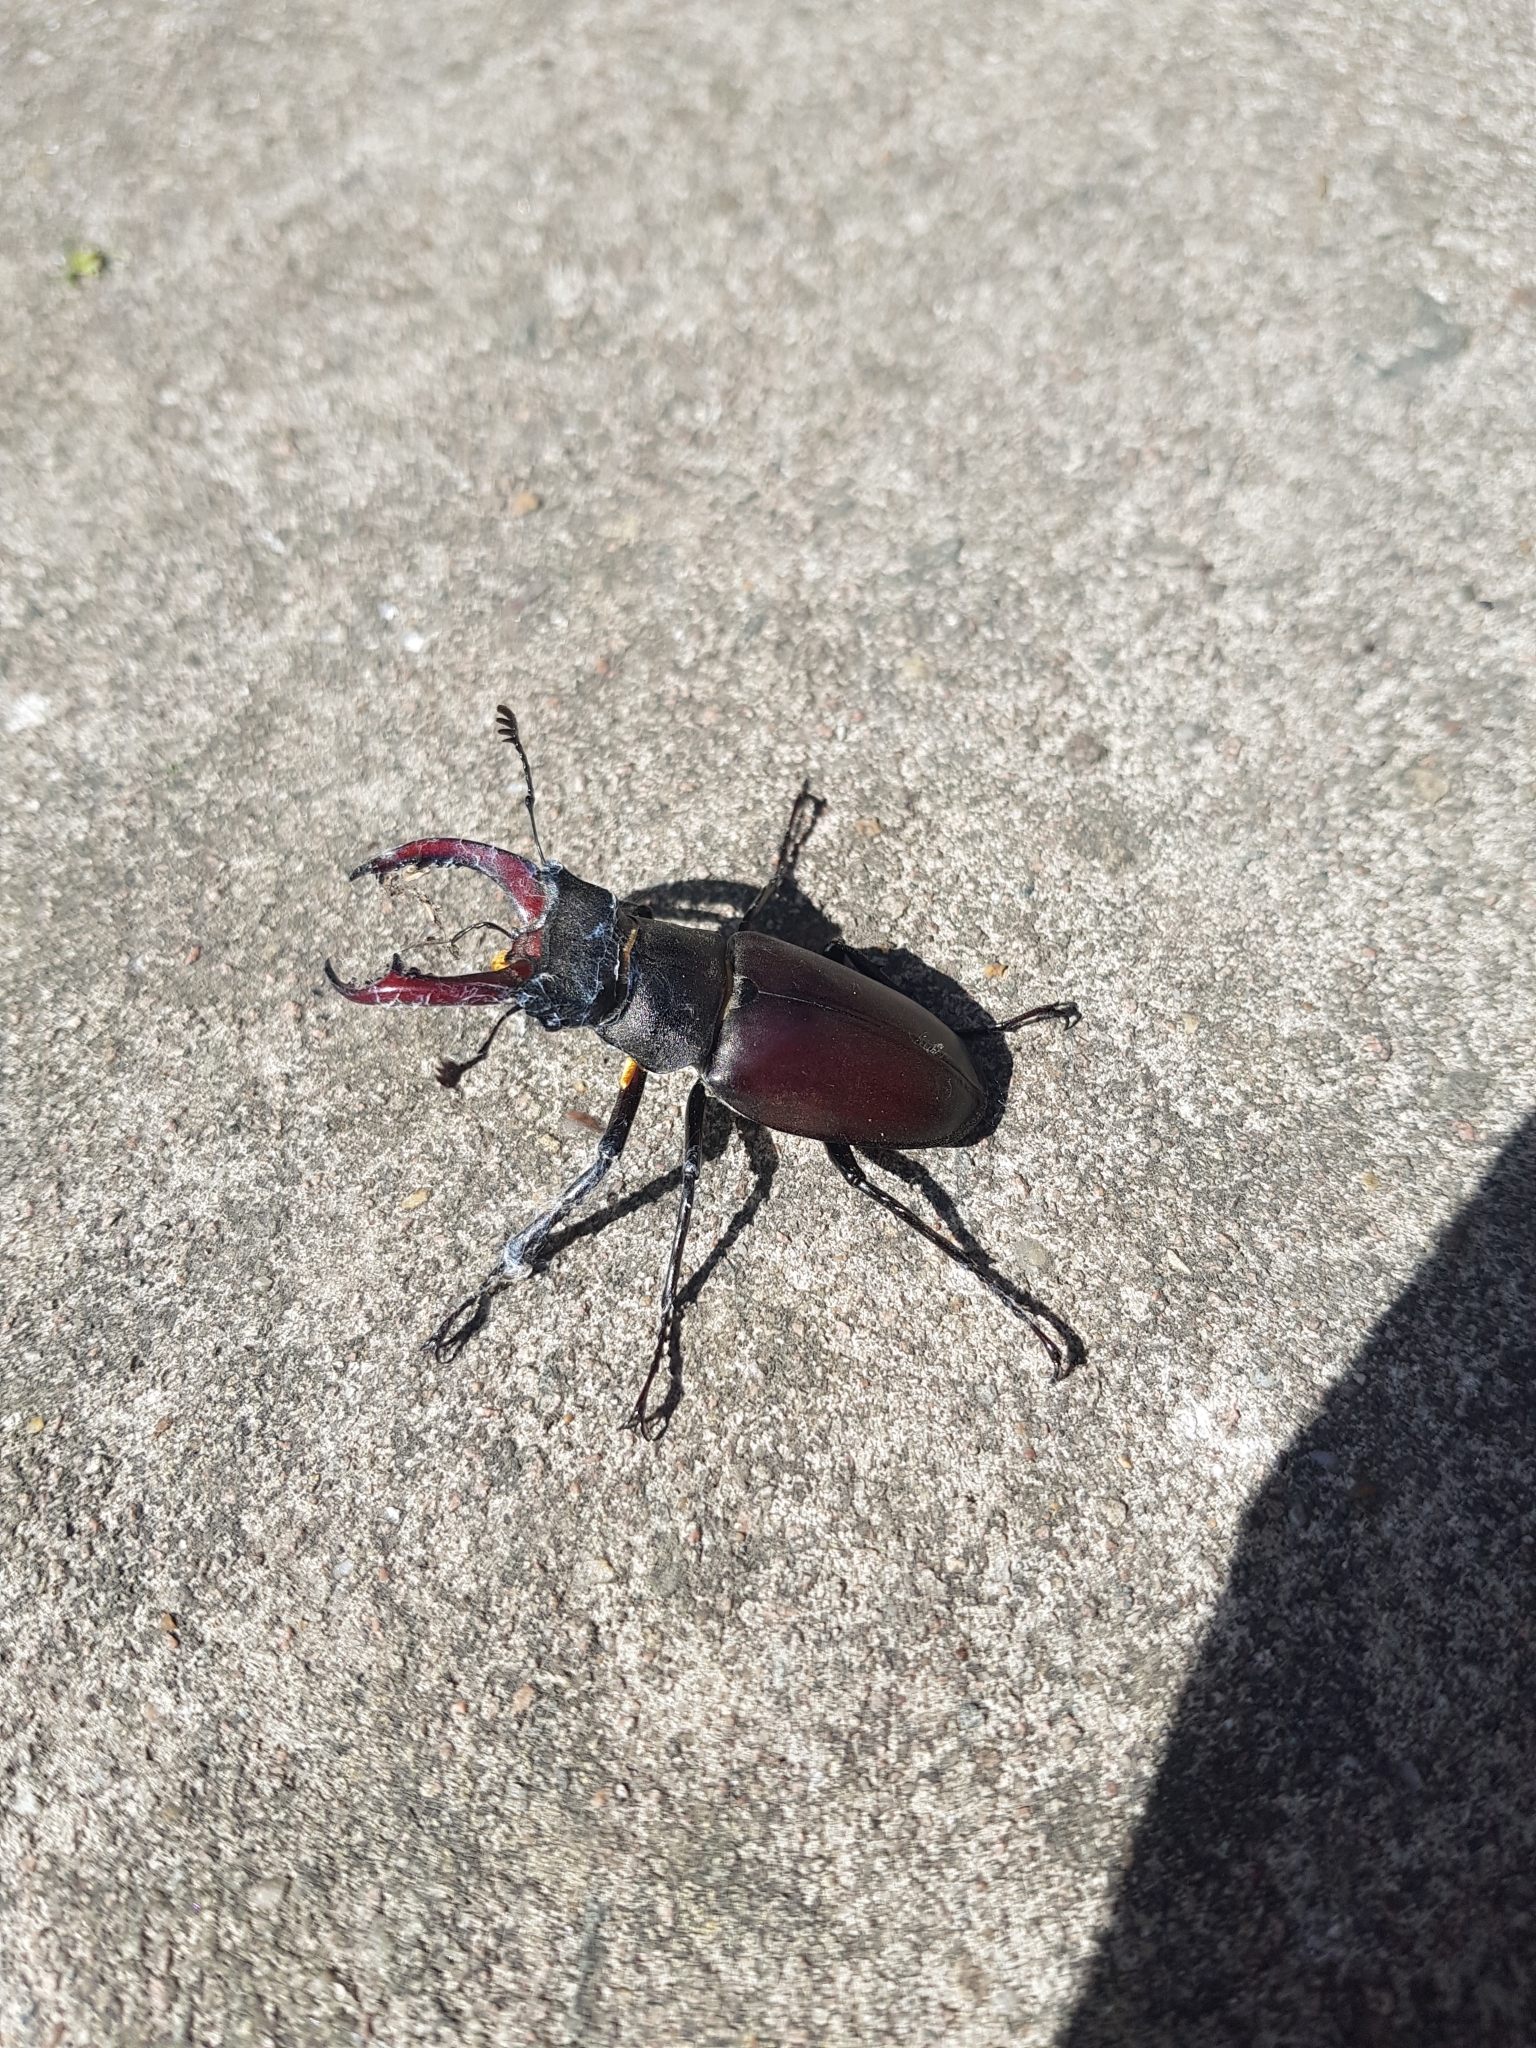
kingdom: Animalia
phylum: Arthropoda
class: Insecta
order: Coleoptera
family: Lucanidae
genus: Lucanus
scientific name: Lucanus cervus
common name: Stag beetle
